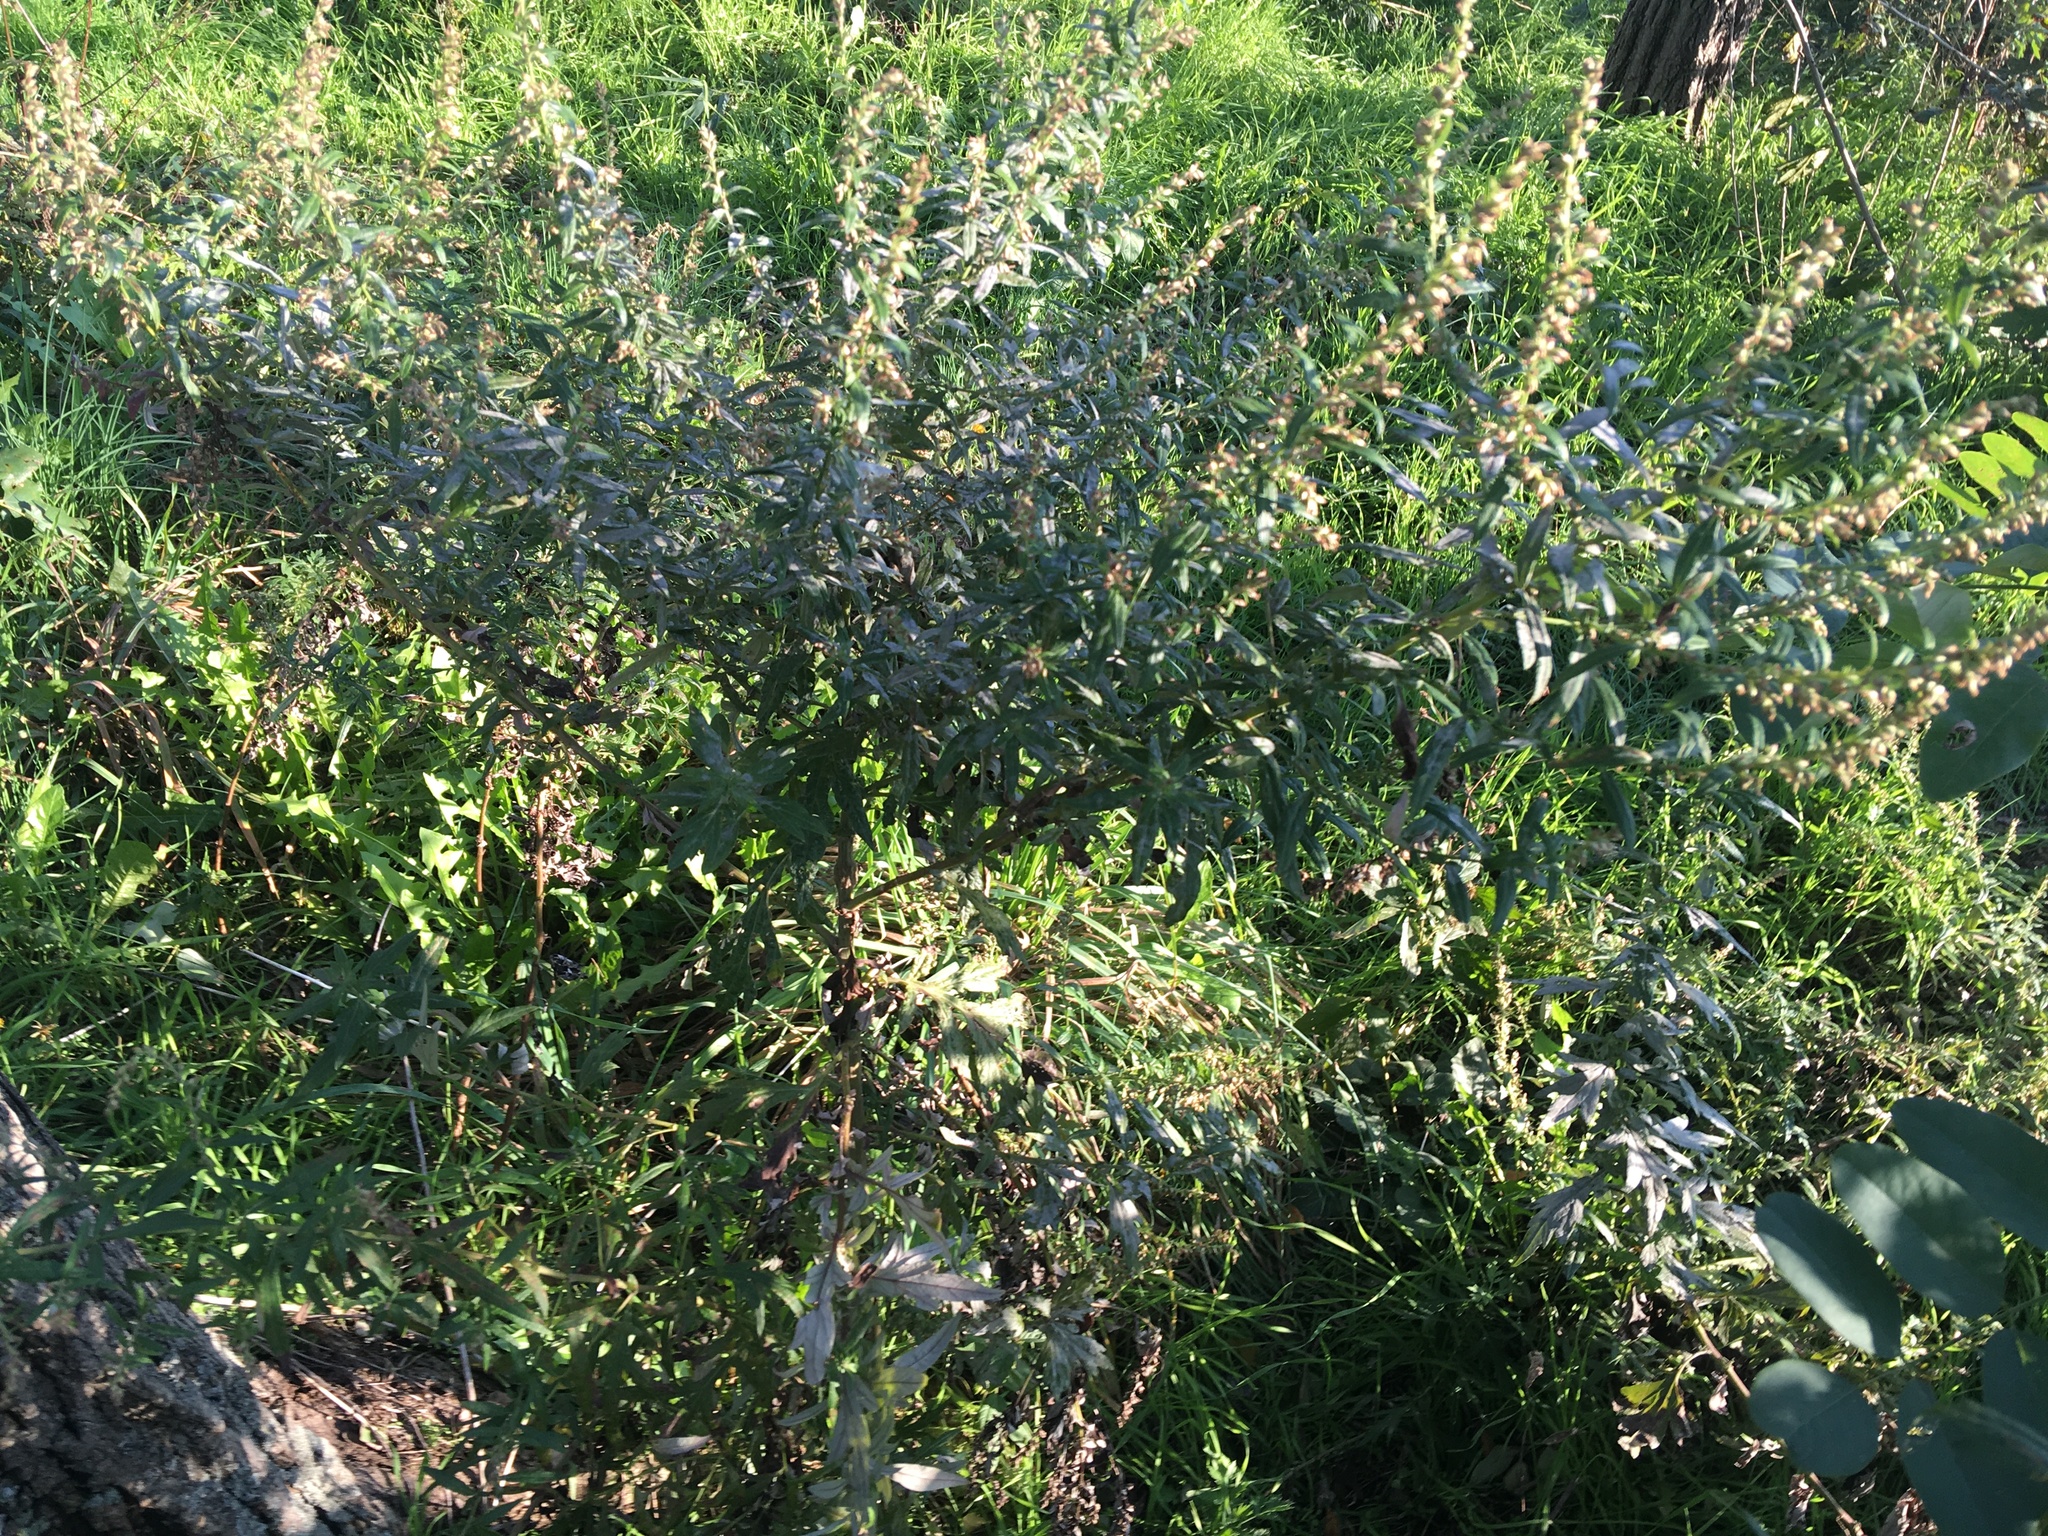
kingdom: Plantae
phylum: Tracheophyta
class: Magnoliopsida
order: Asterales
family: Asteraceae
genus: Artemisia
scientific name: Artemisia vulgaris
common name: Mugwort
